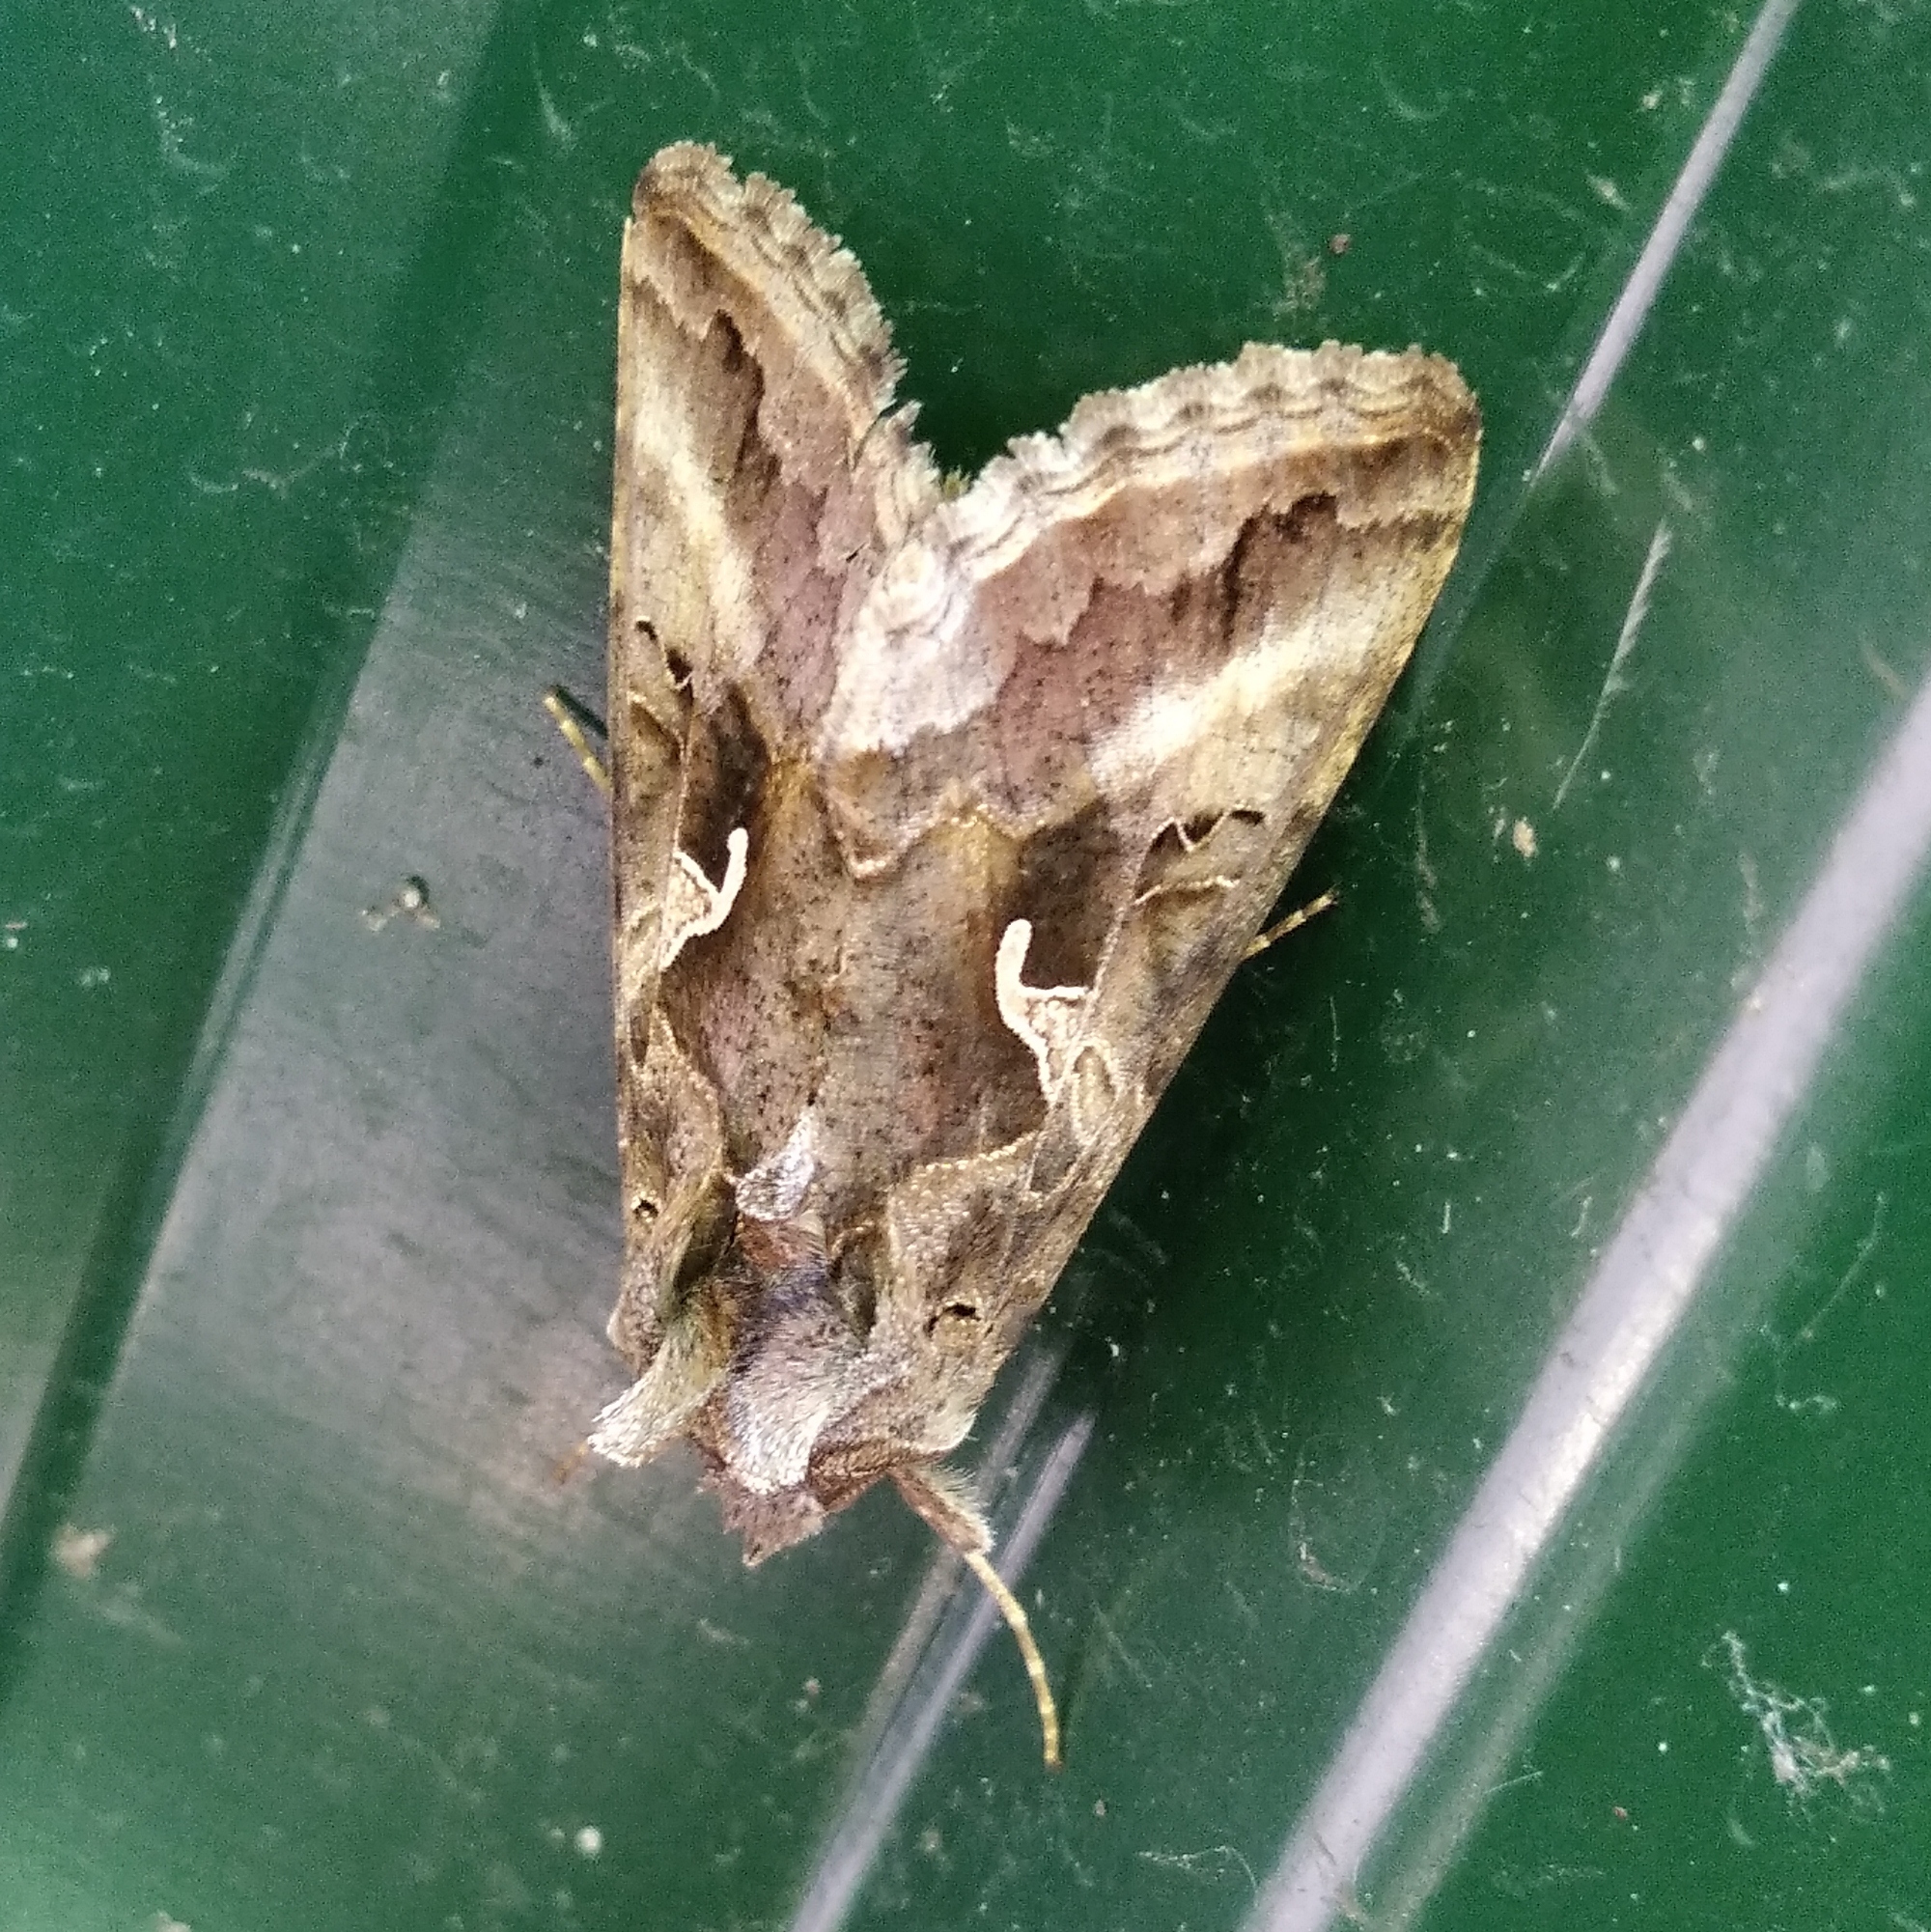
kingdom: Animalia
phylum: Arthropoda
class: Insecta
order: Lepidoptera
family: Noctuidae
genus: Autographa
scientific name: Autographa gamma
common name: Silver y
